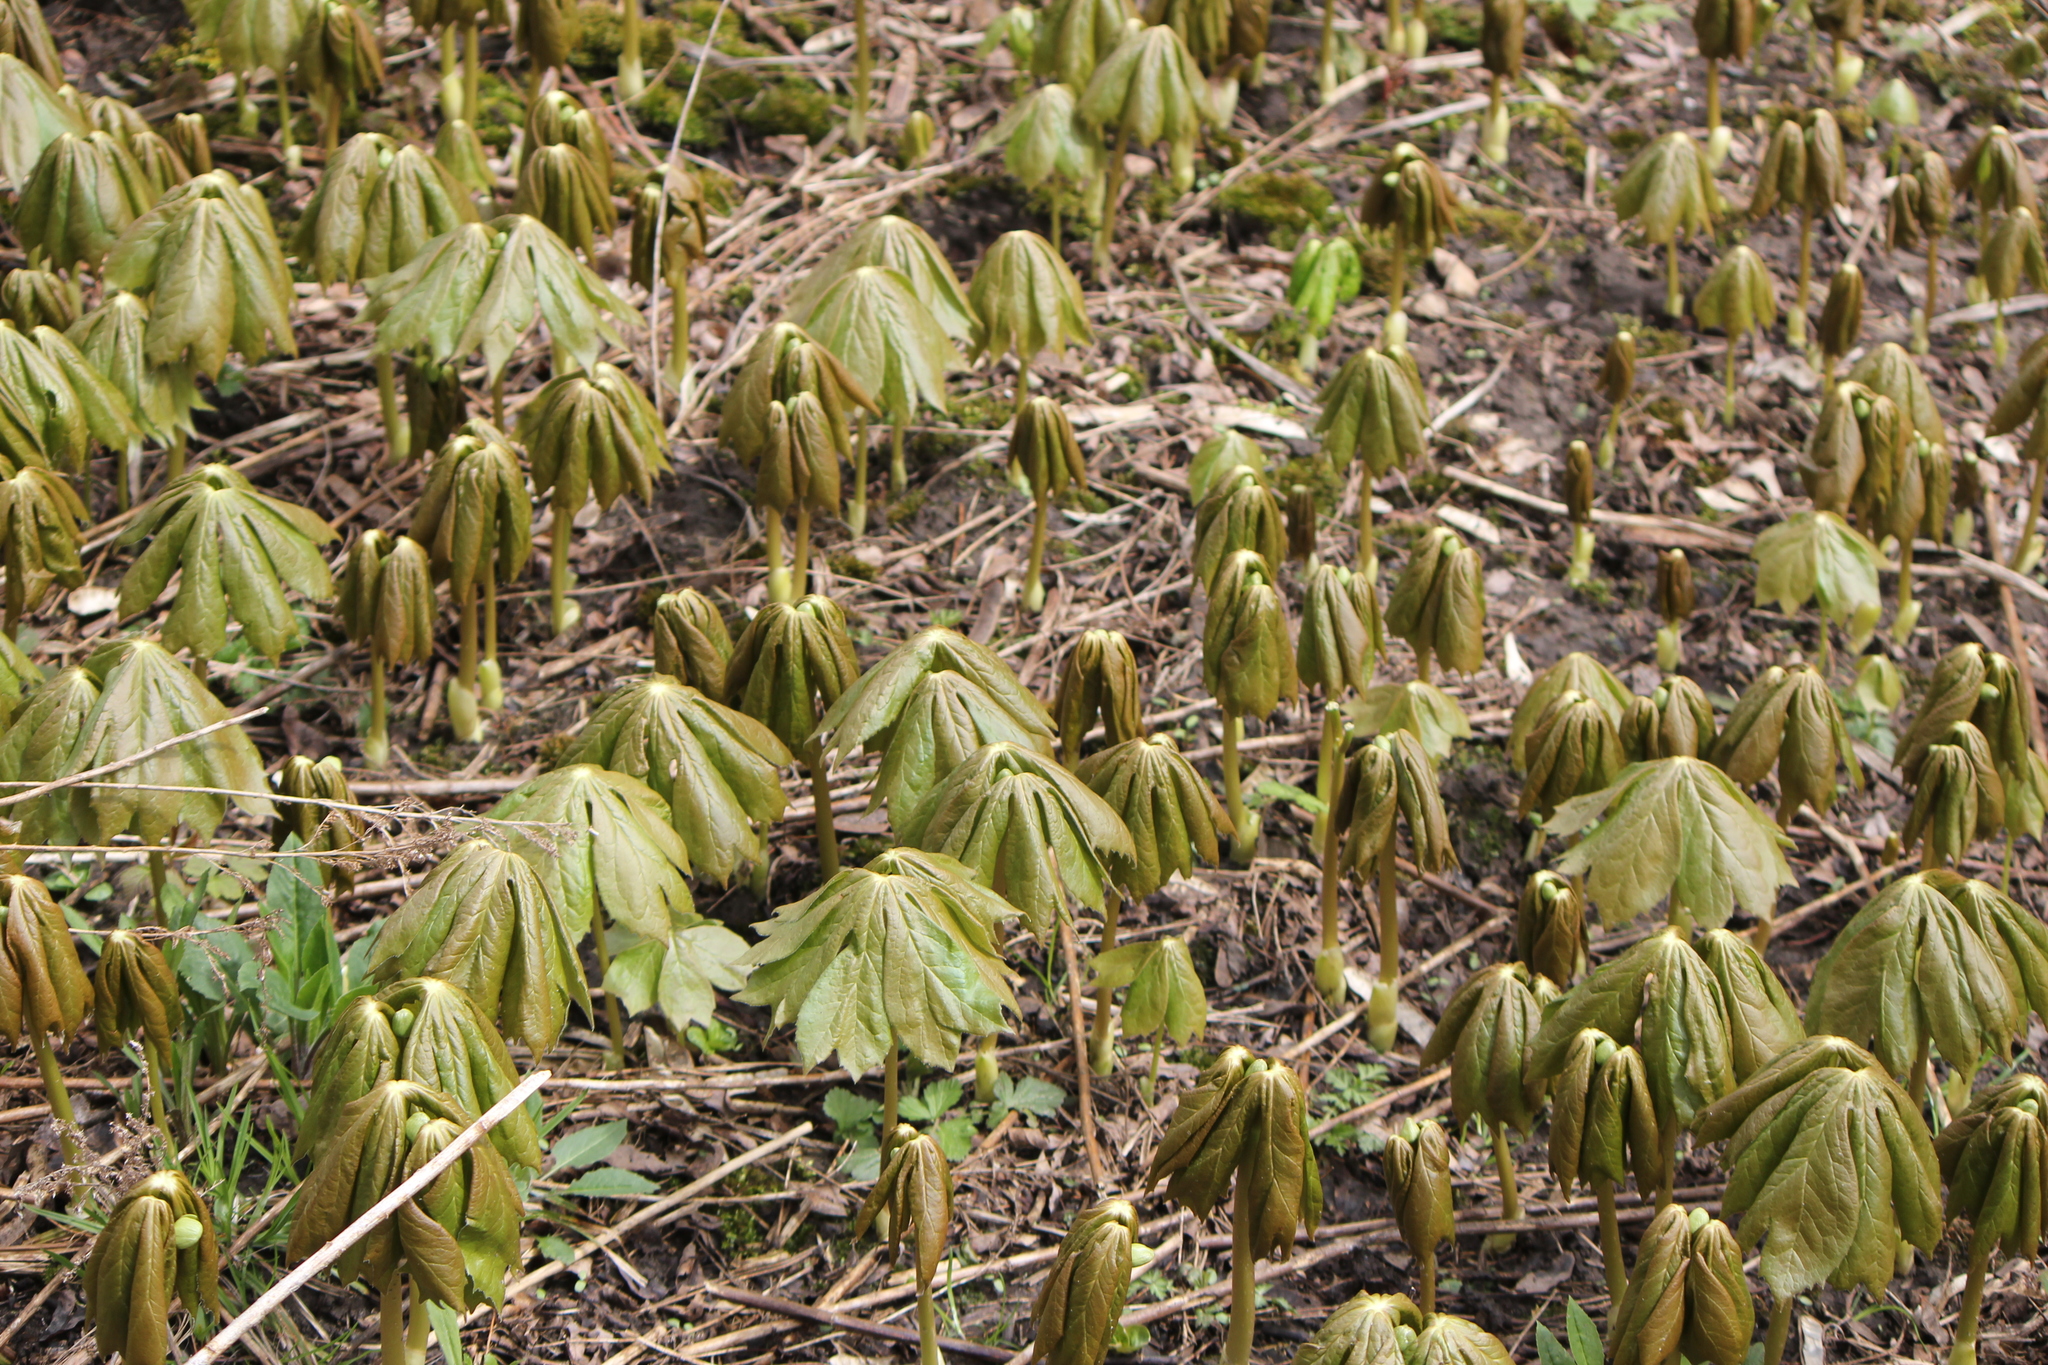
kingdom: Plantae
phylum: Tracheophyta
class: Magnoliopsida
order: Ranunculales
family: Berberidaceae
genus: Podophyllum
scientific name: Podophyllum peltatum
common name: Wild mandrake
